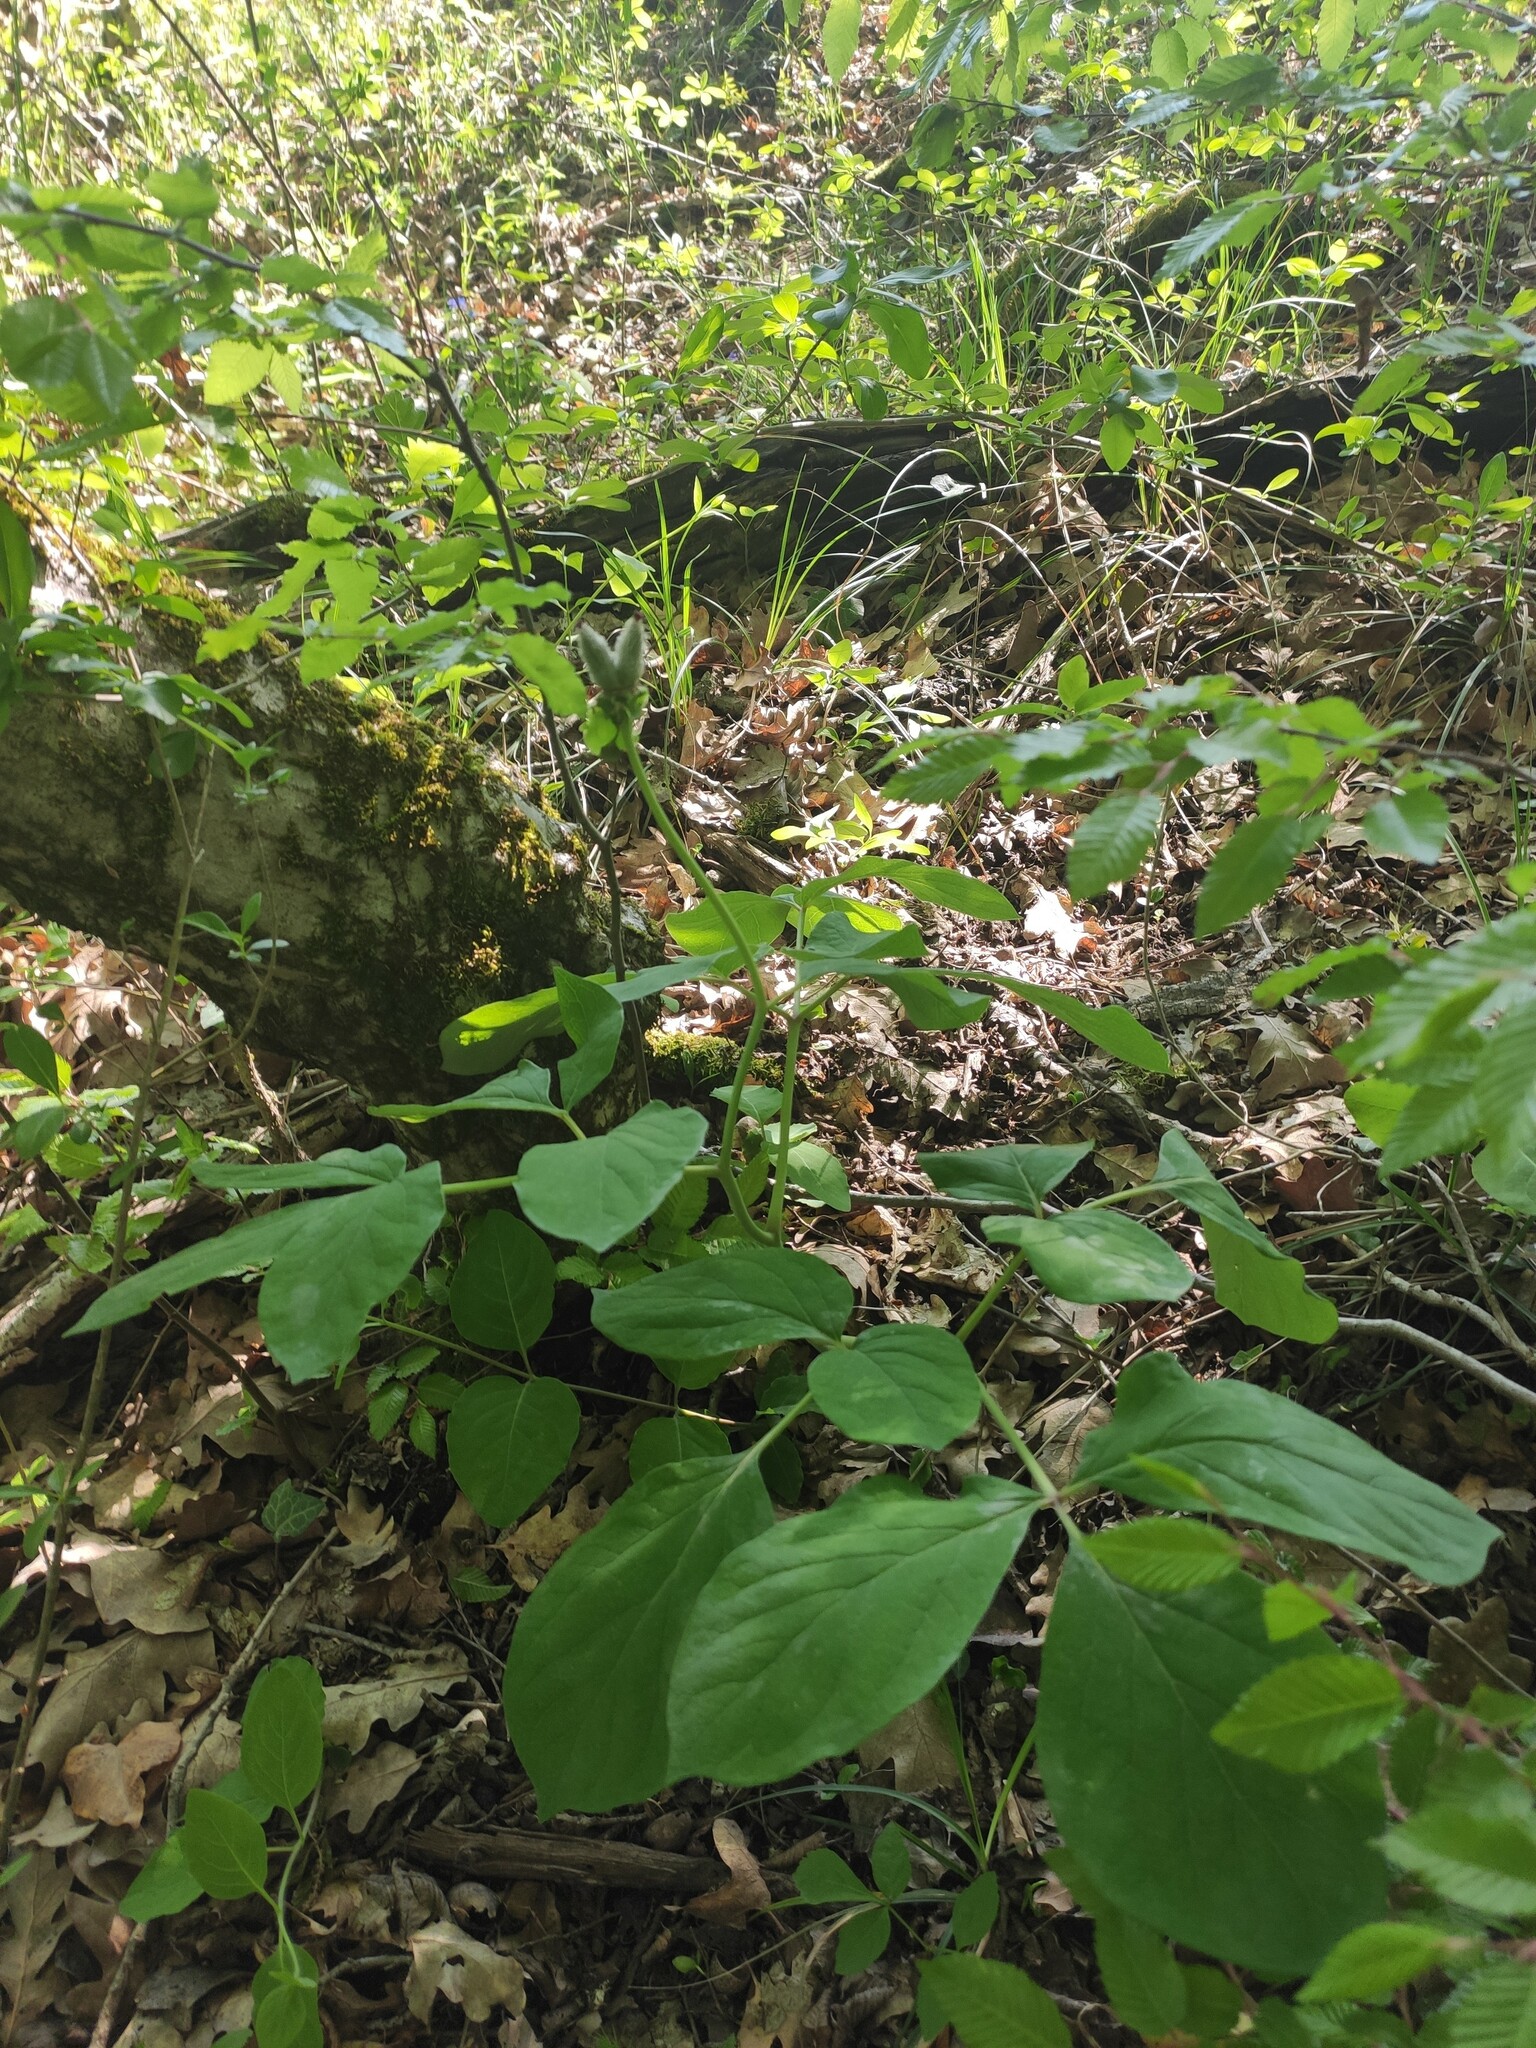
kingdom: Plantae
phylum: Tracheophyta
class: Magnoliopsida
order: Saxifragales
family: Paeoniaceae
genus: Paeonia
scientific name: Paeonia caucasica
